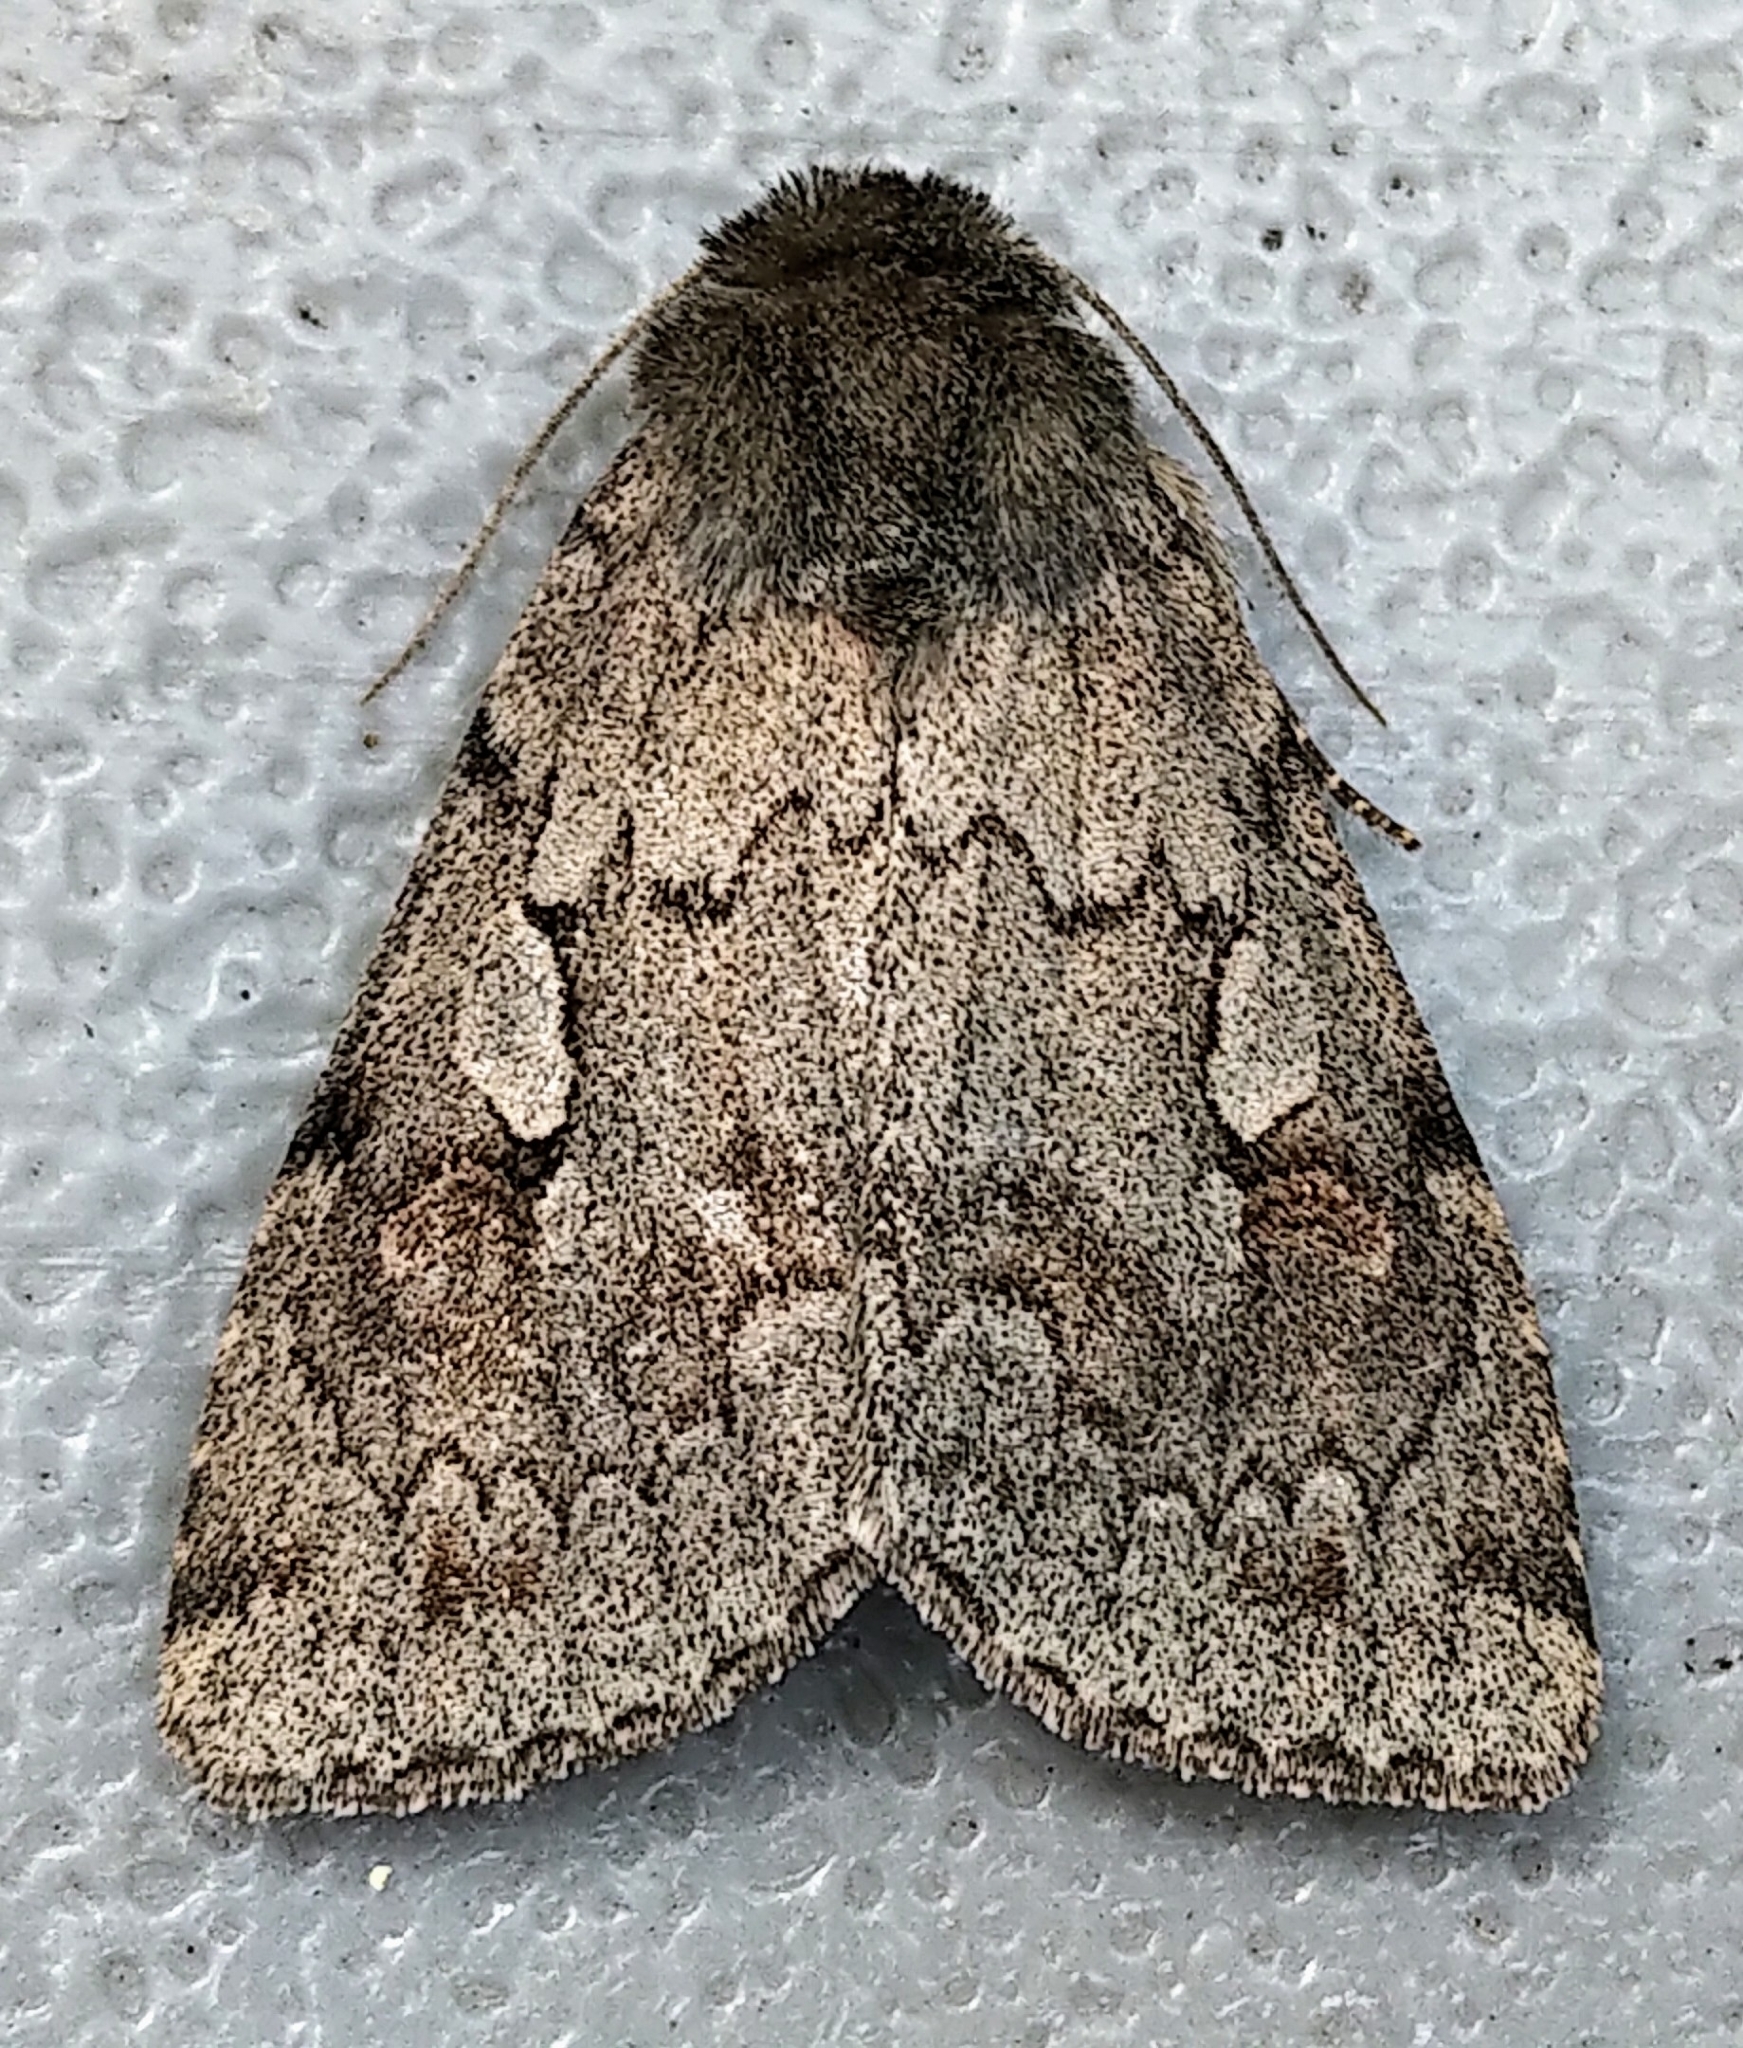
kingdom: Animalia
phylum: Arthropoda
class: Insecta
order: Lepidoptera
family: Noctuidae
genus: Xestia
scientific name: Xestia fabulosa
